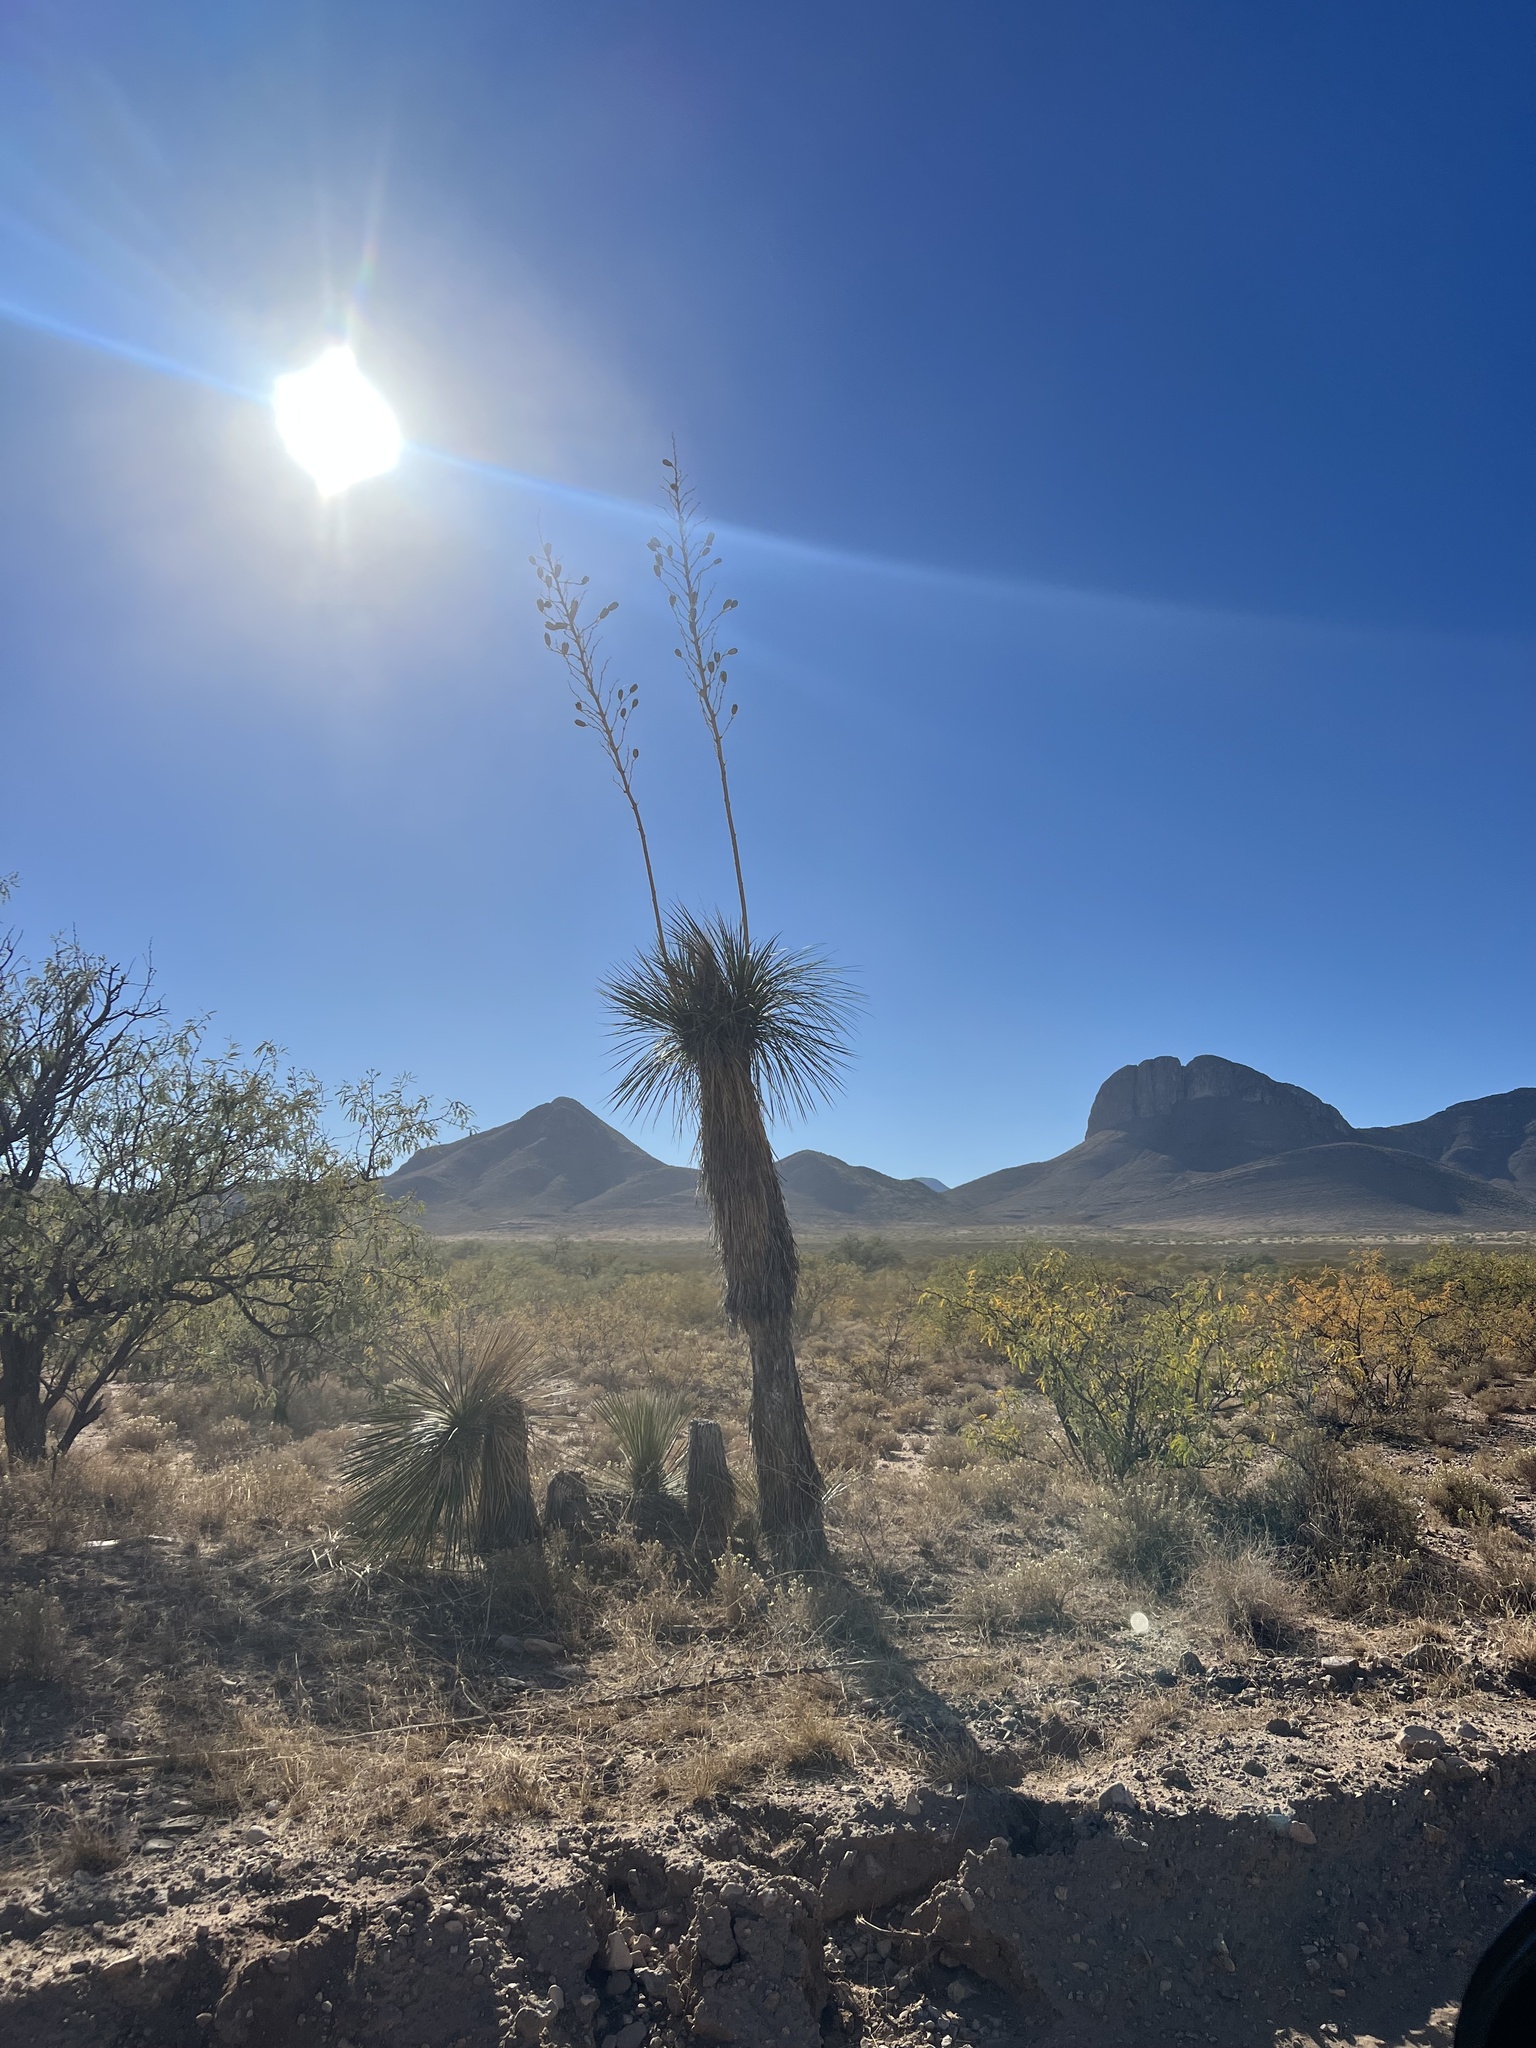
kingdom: Plantae
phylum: Tracheophyta
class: Liliopsida
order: Asparagales
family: Asparagaceae
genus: Yucca
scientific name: Yucca elata
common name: Palmella
